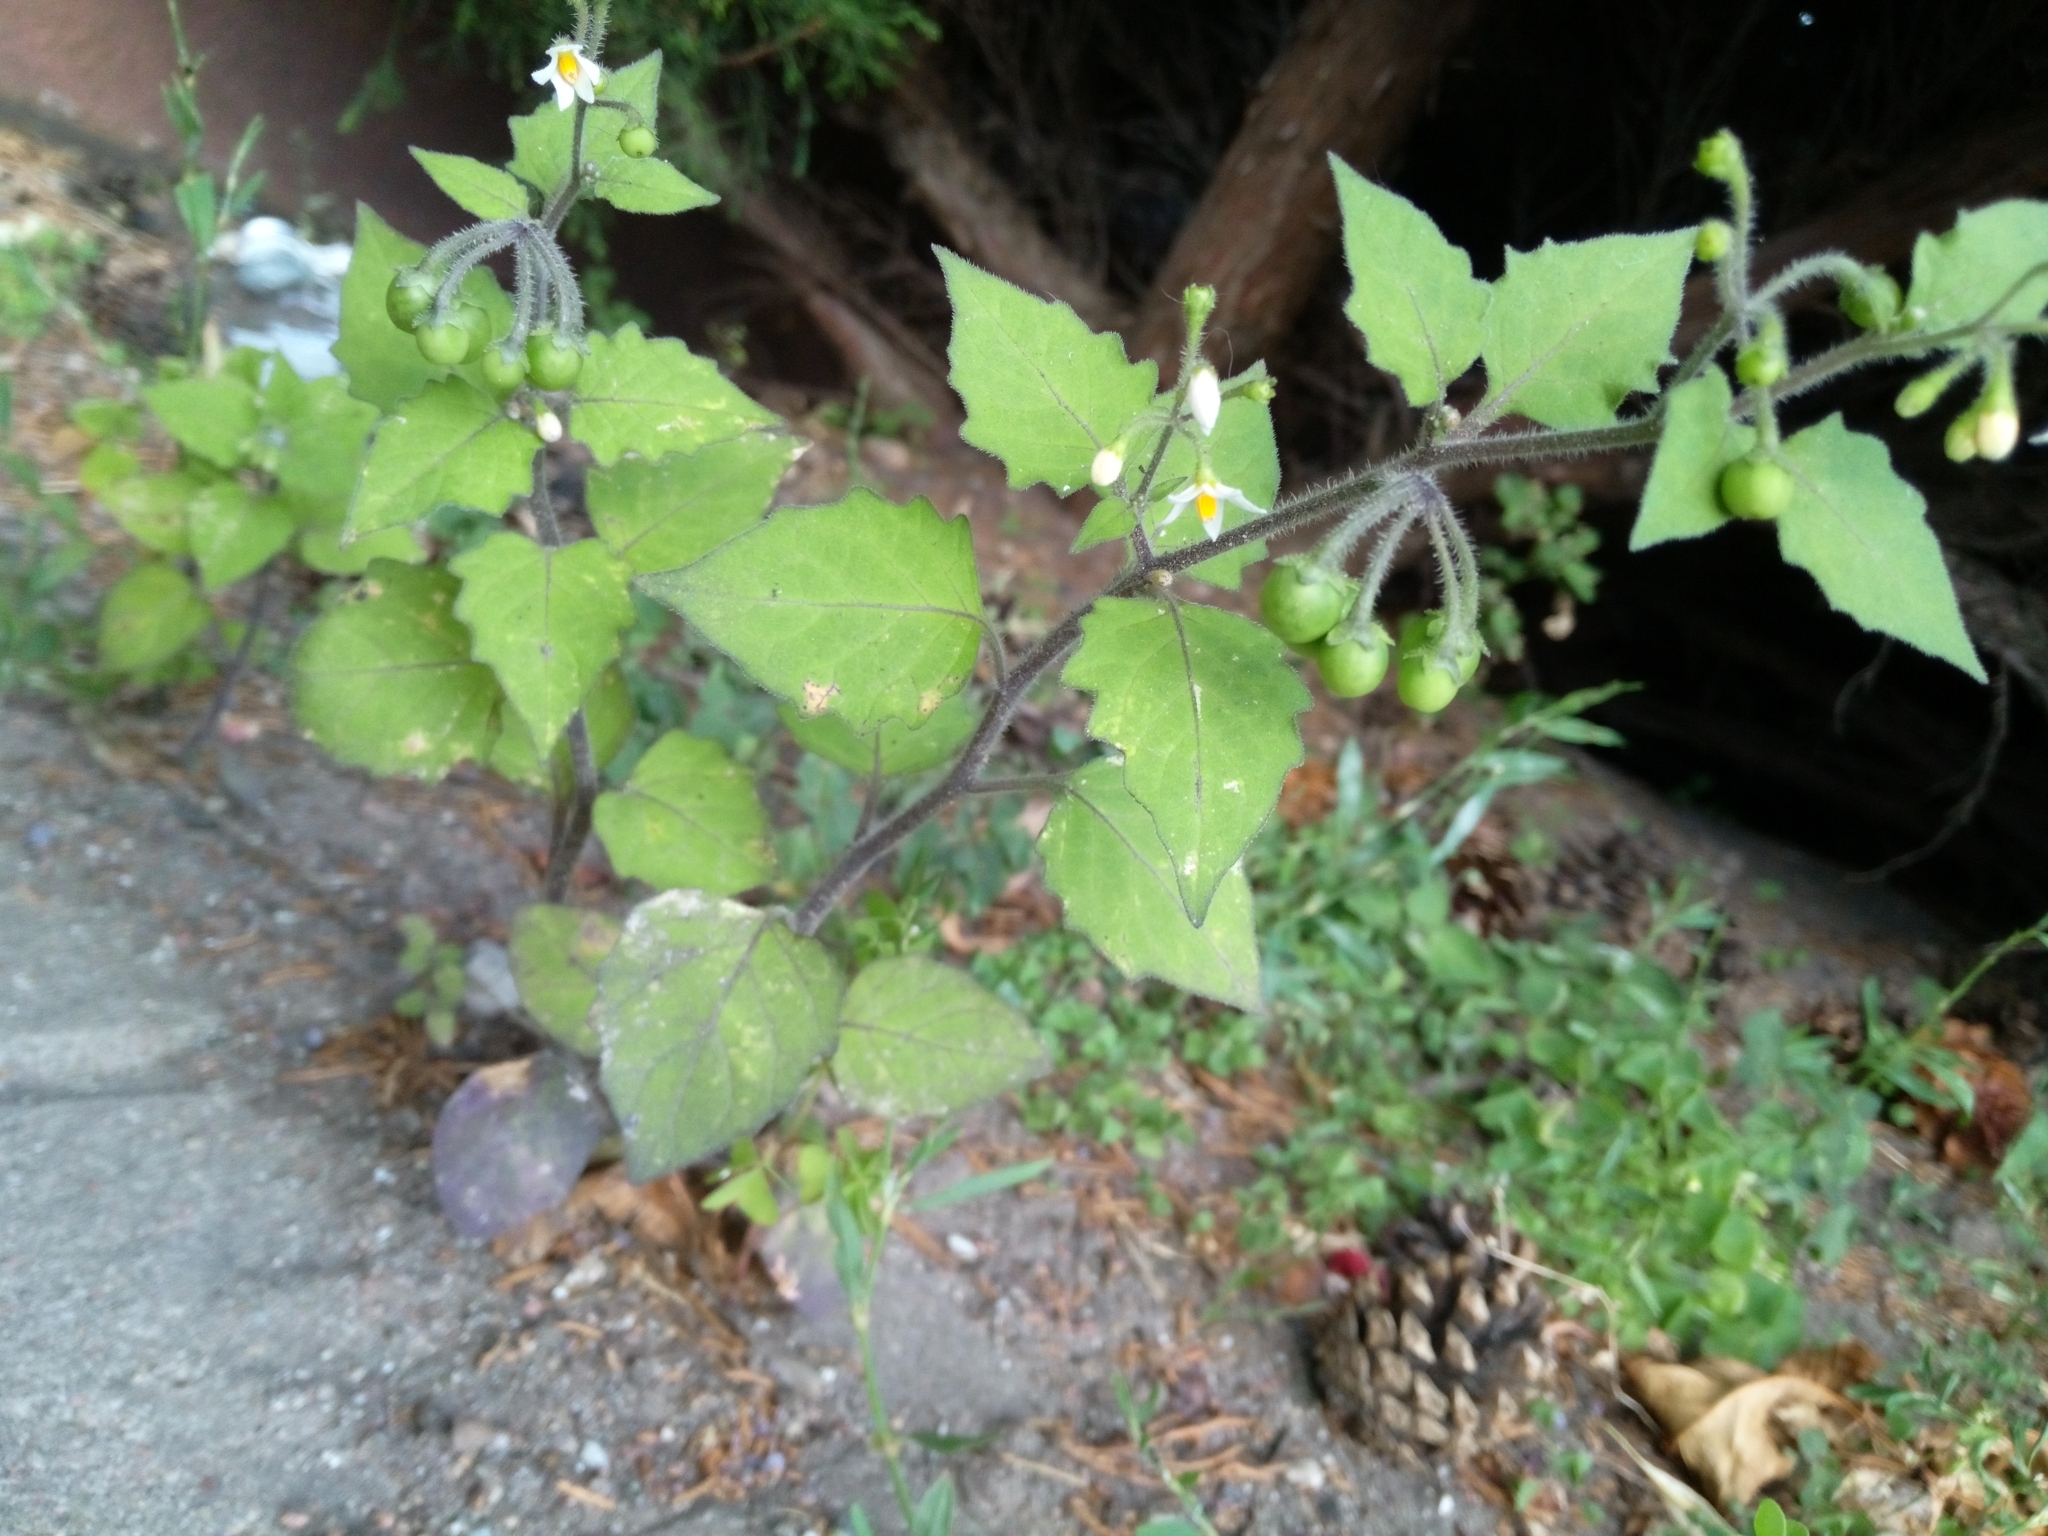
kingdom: Plantae
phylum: Tracheophyta
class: Magnoliopsida
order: Solanales
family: Solanaceae
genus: Solanum
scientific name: Solanum nigrum
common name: Black nightshade
